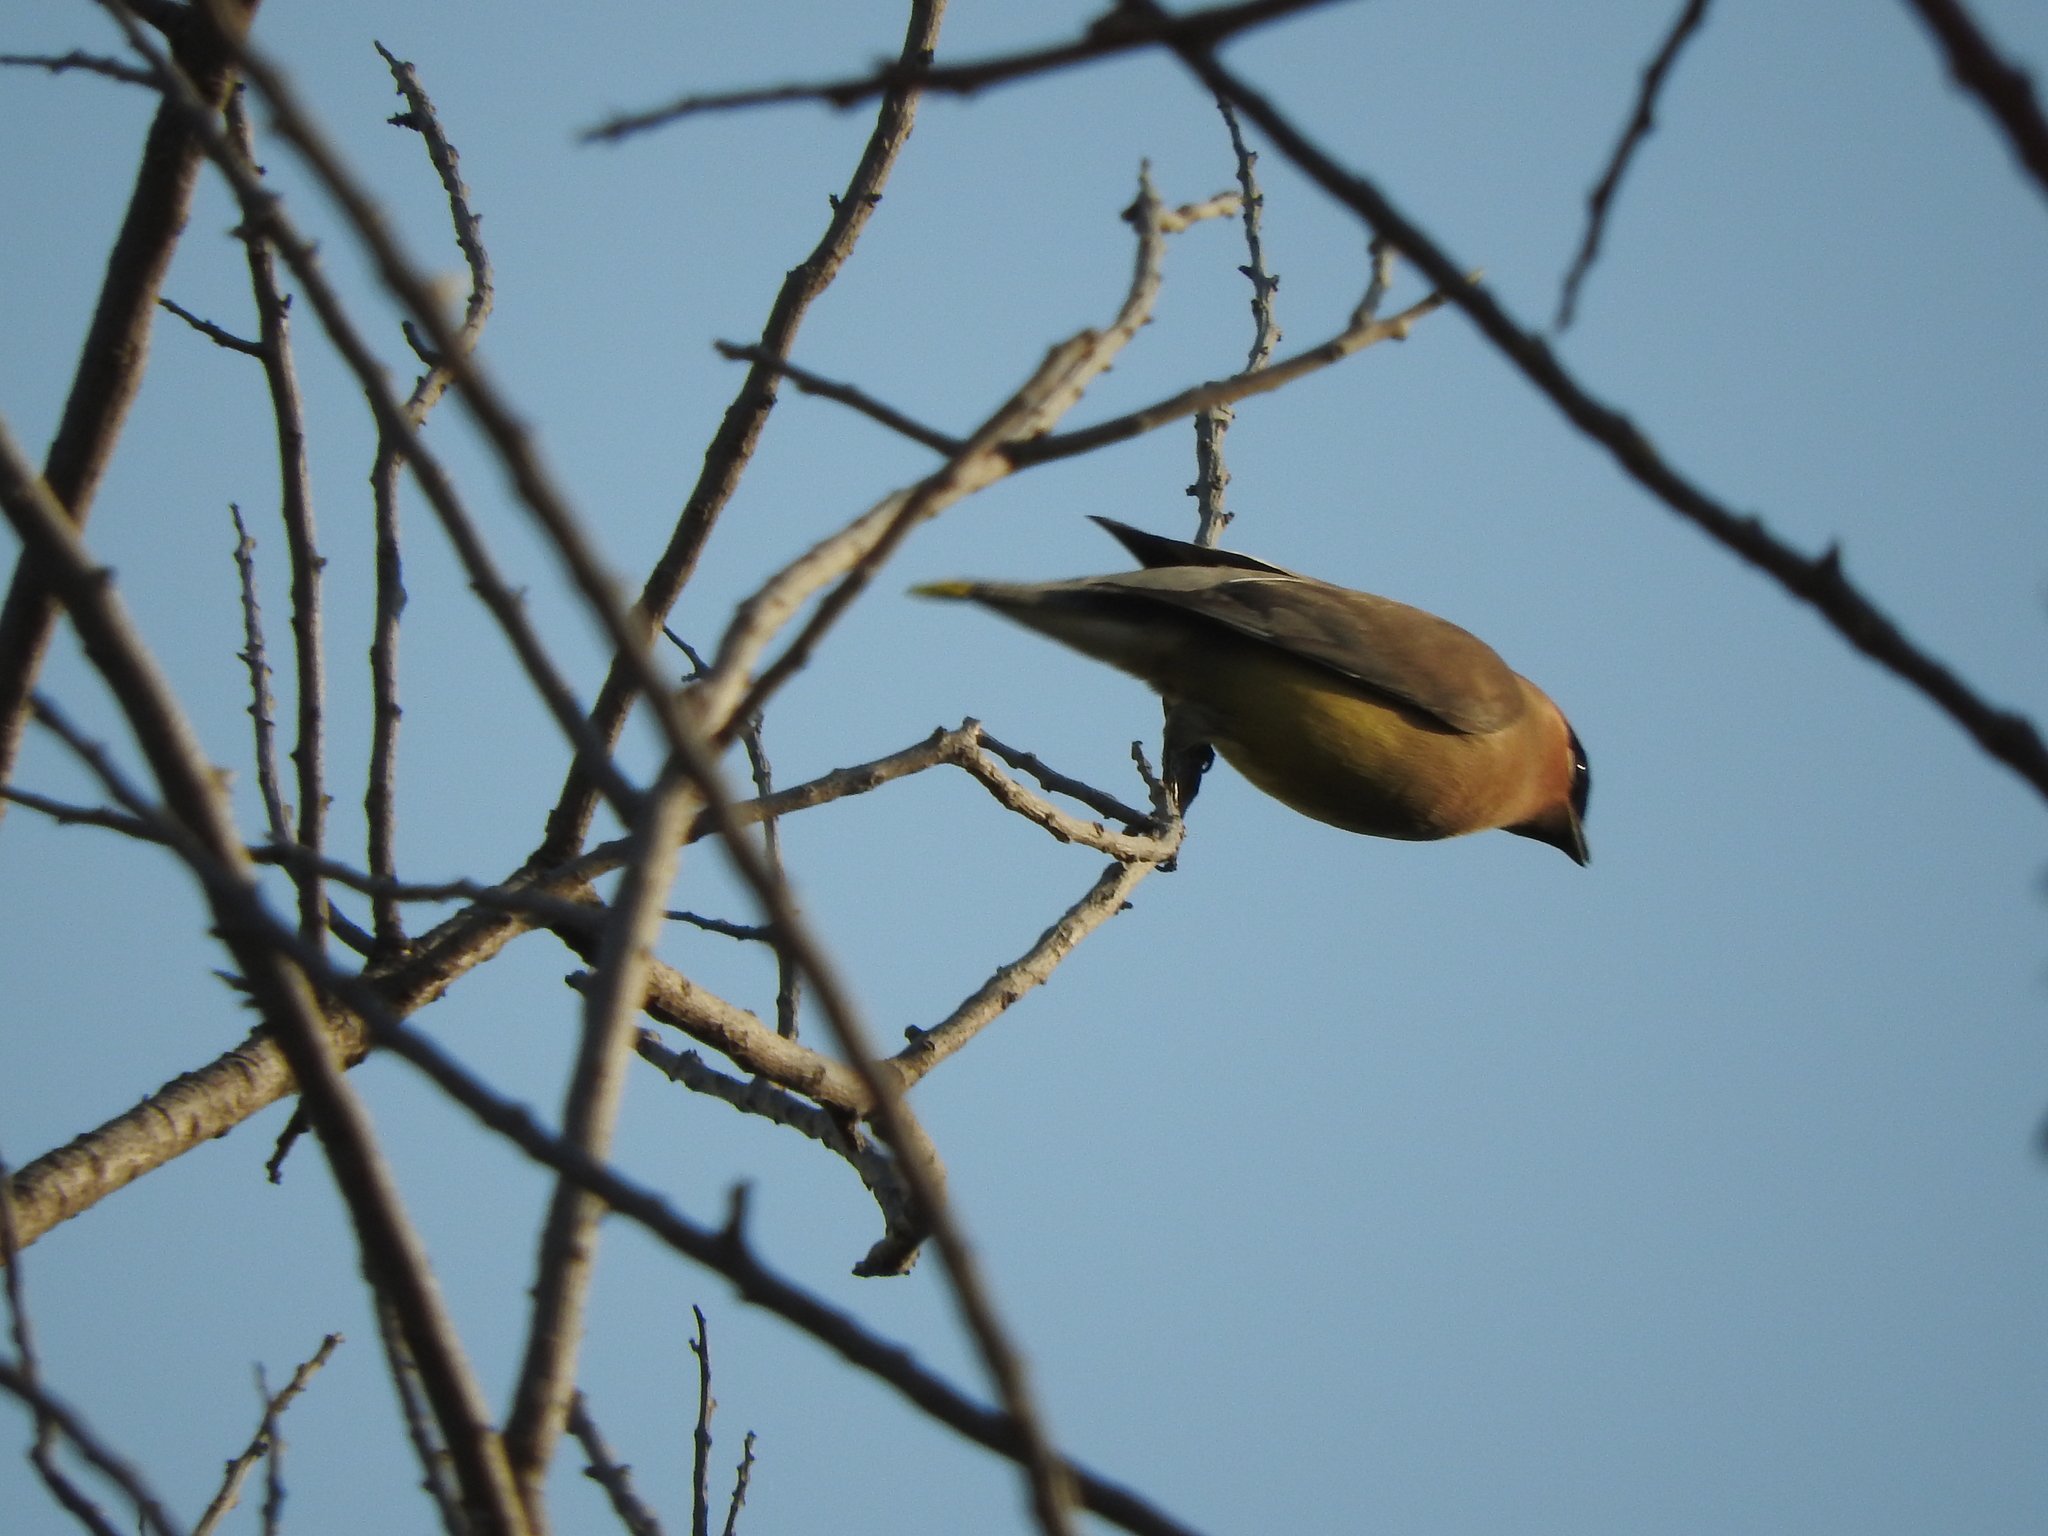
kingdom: Animalia
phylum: Chordata
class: Aves
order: Passeriformes
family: Bombycillidae
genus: Bombycilla
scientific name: Bombycilla cedrorum
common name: Cedar waxwing
